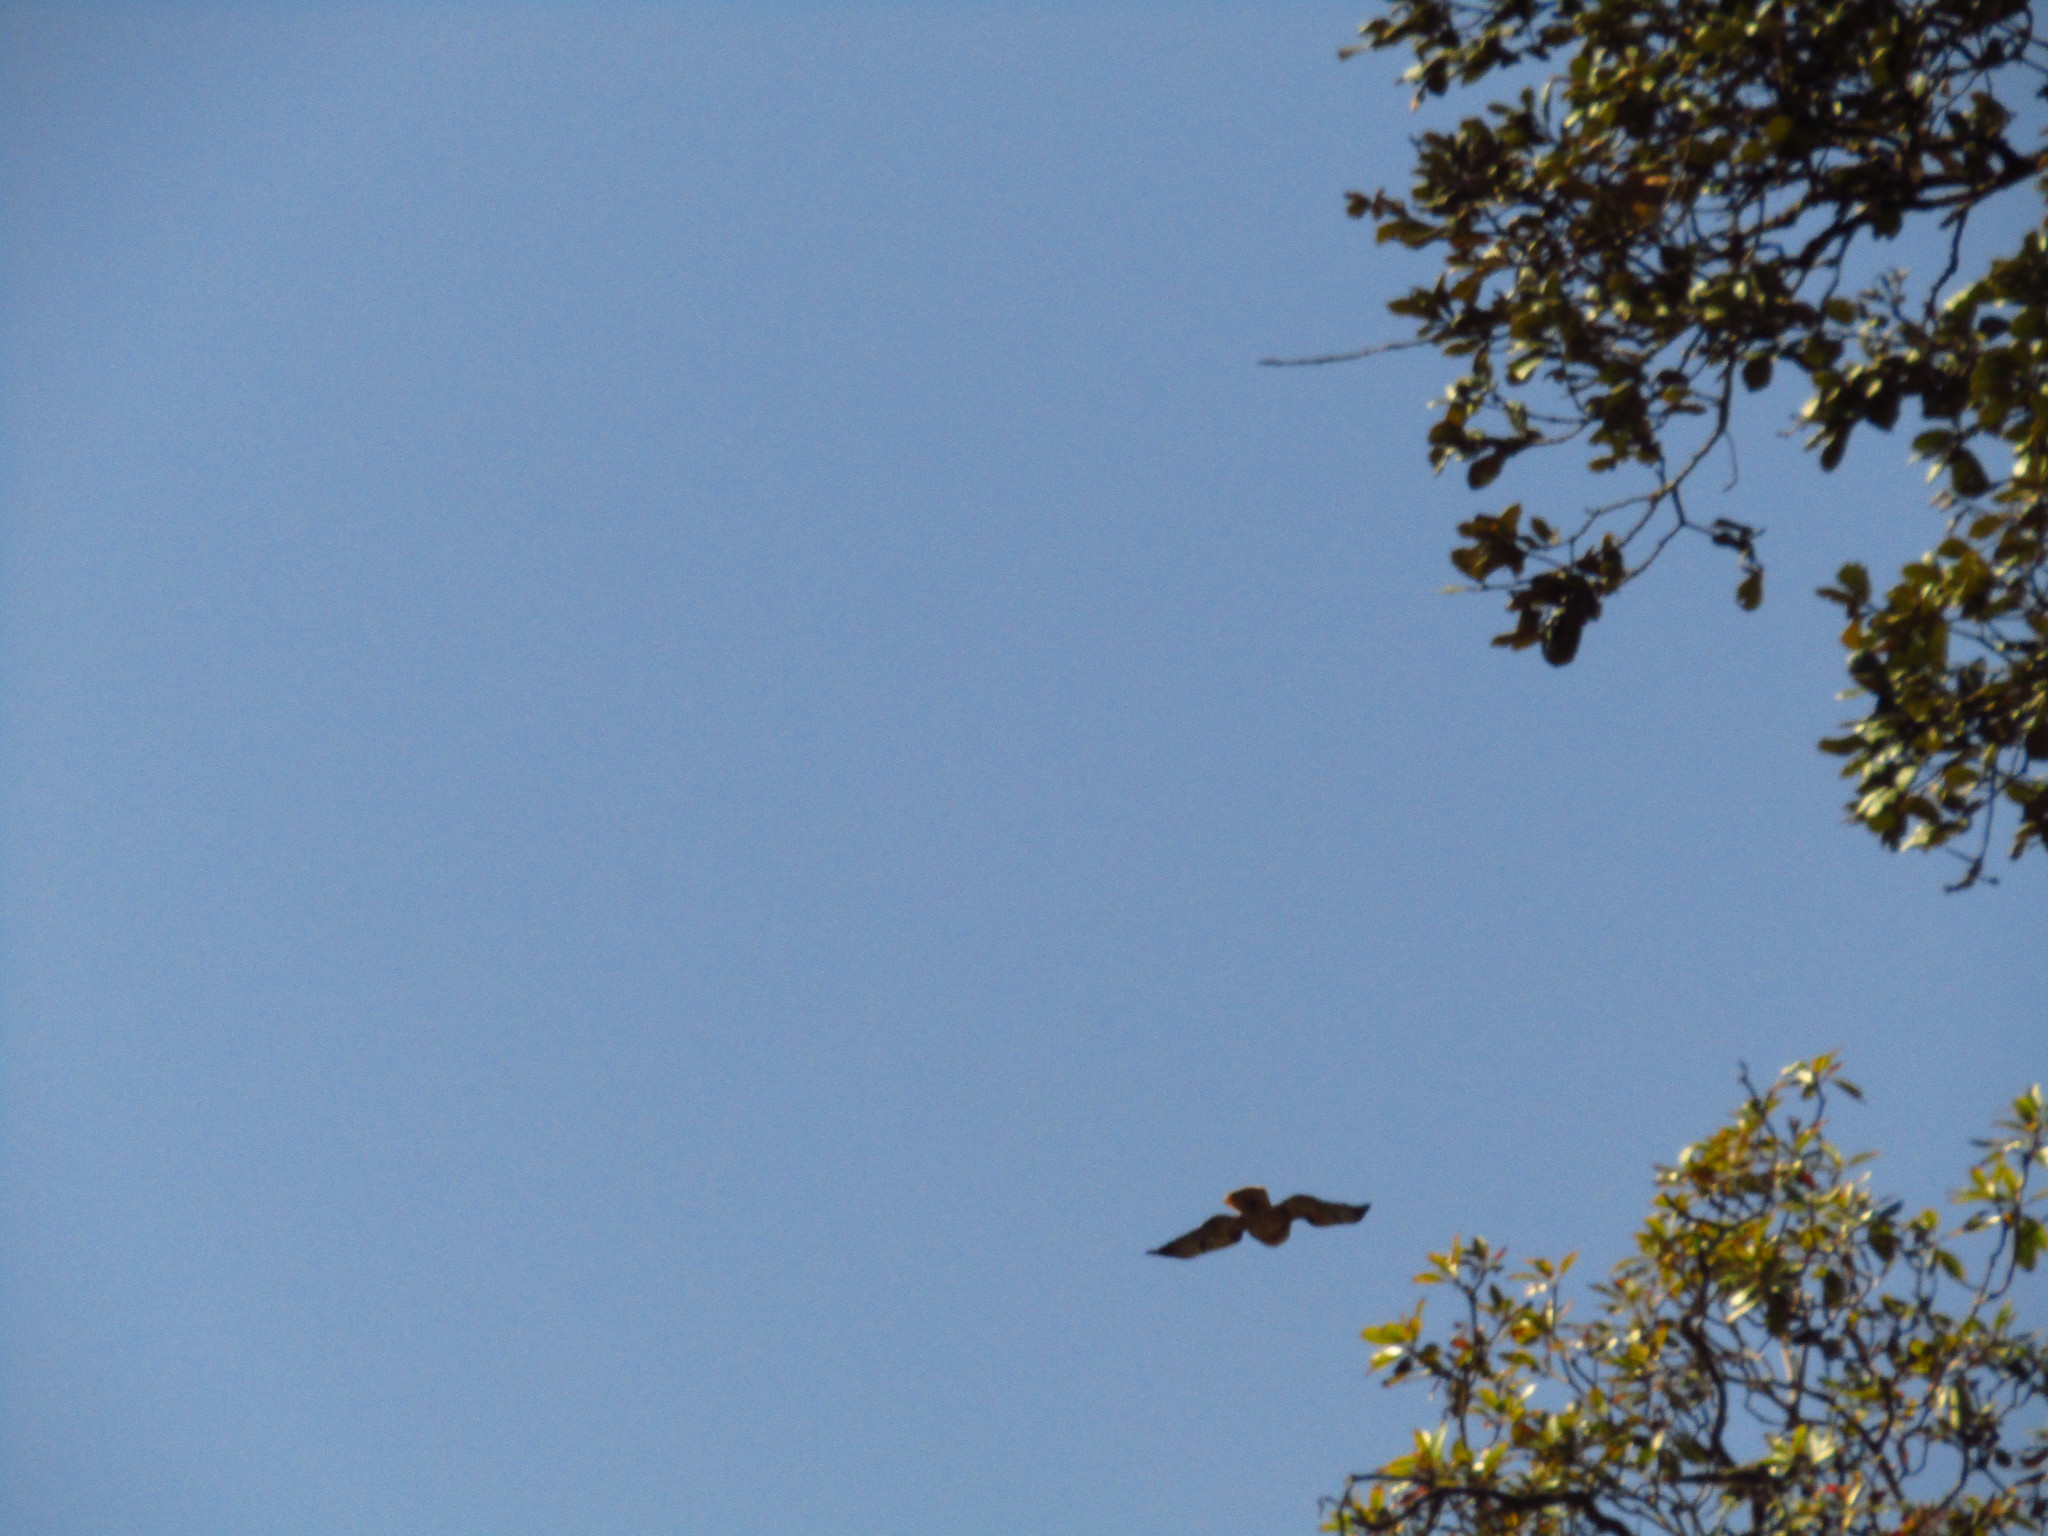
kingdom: Animalia
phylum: Chordata
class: Aves
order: Accipitriformes
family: Accipitridae
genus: Buteo
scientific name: Buteo jamaicensis
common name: Red-tailed hawk
